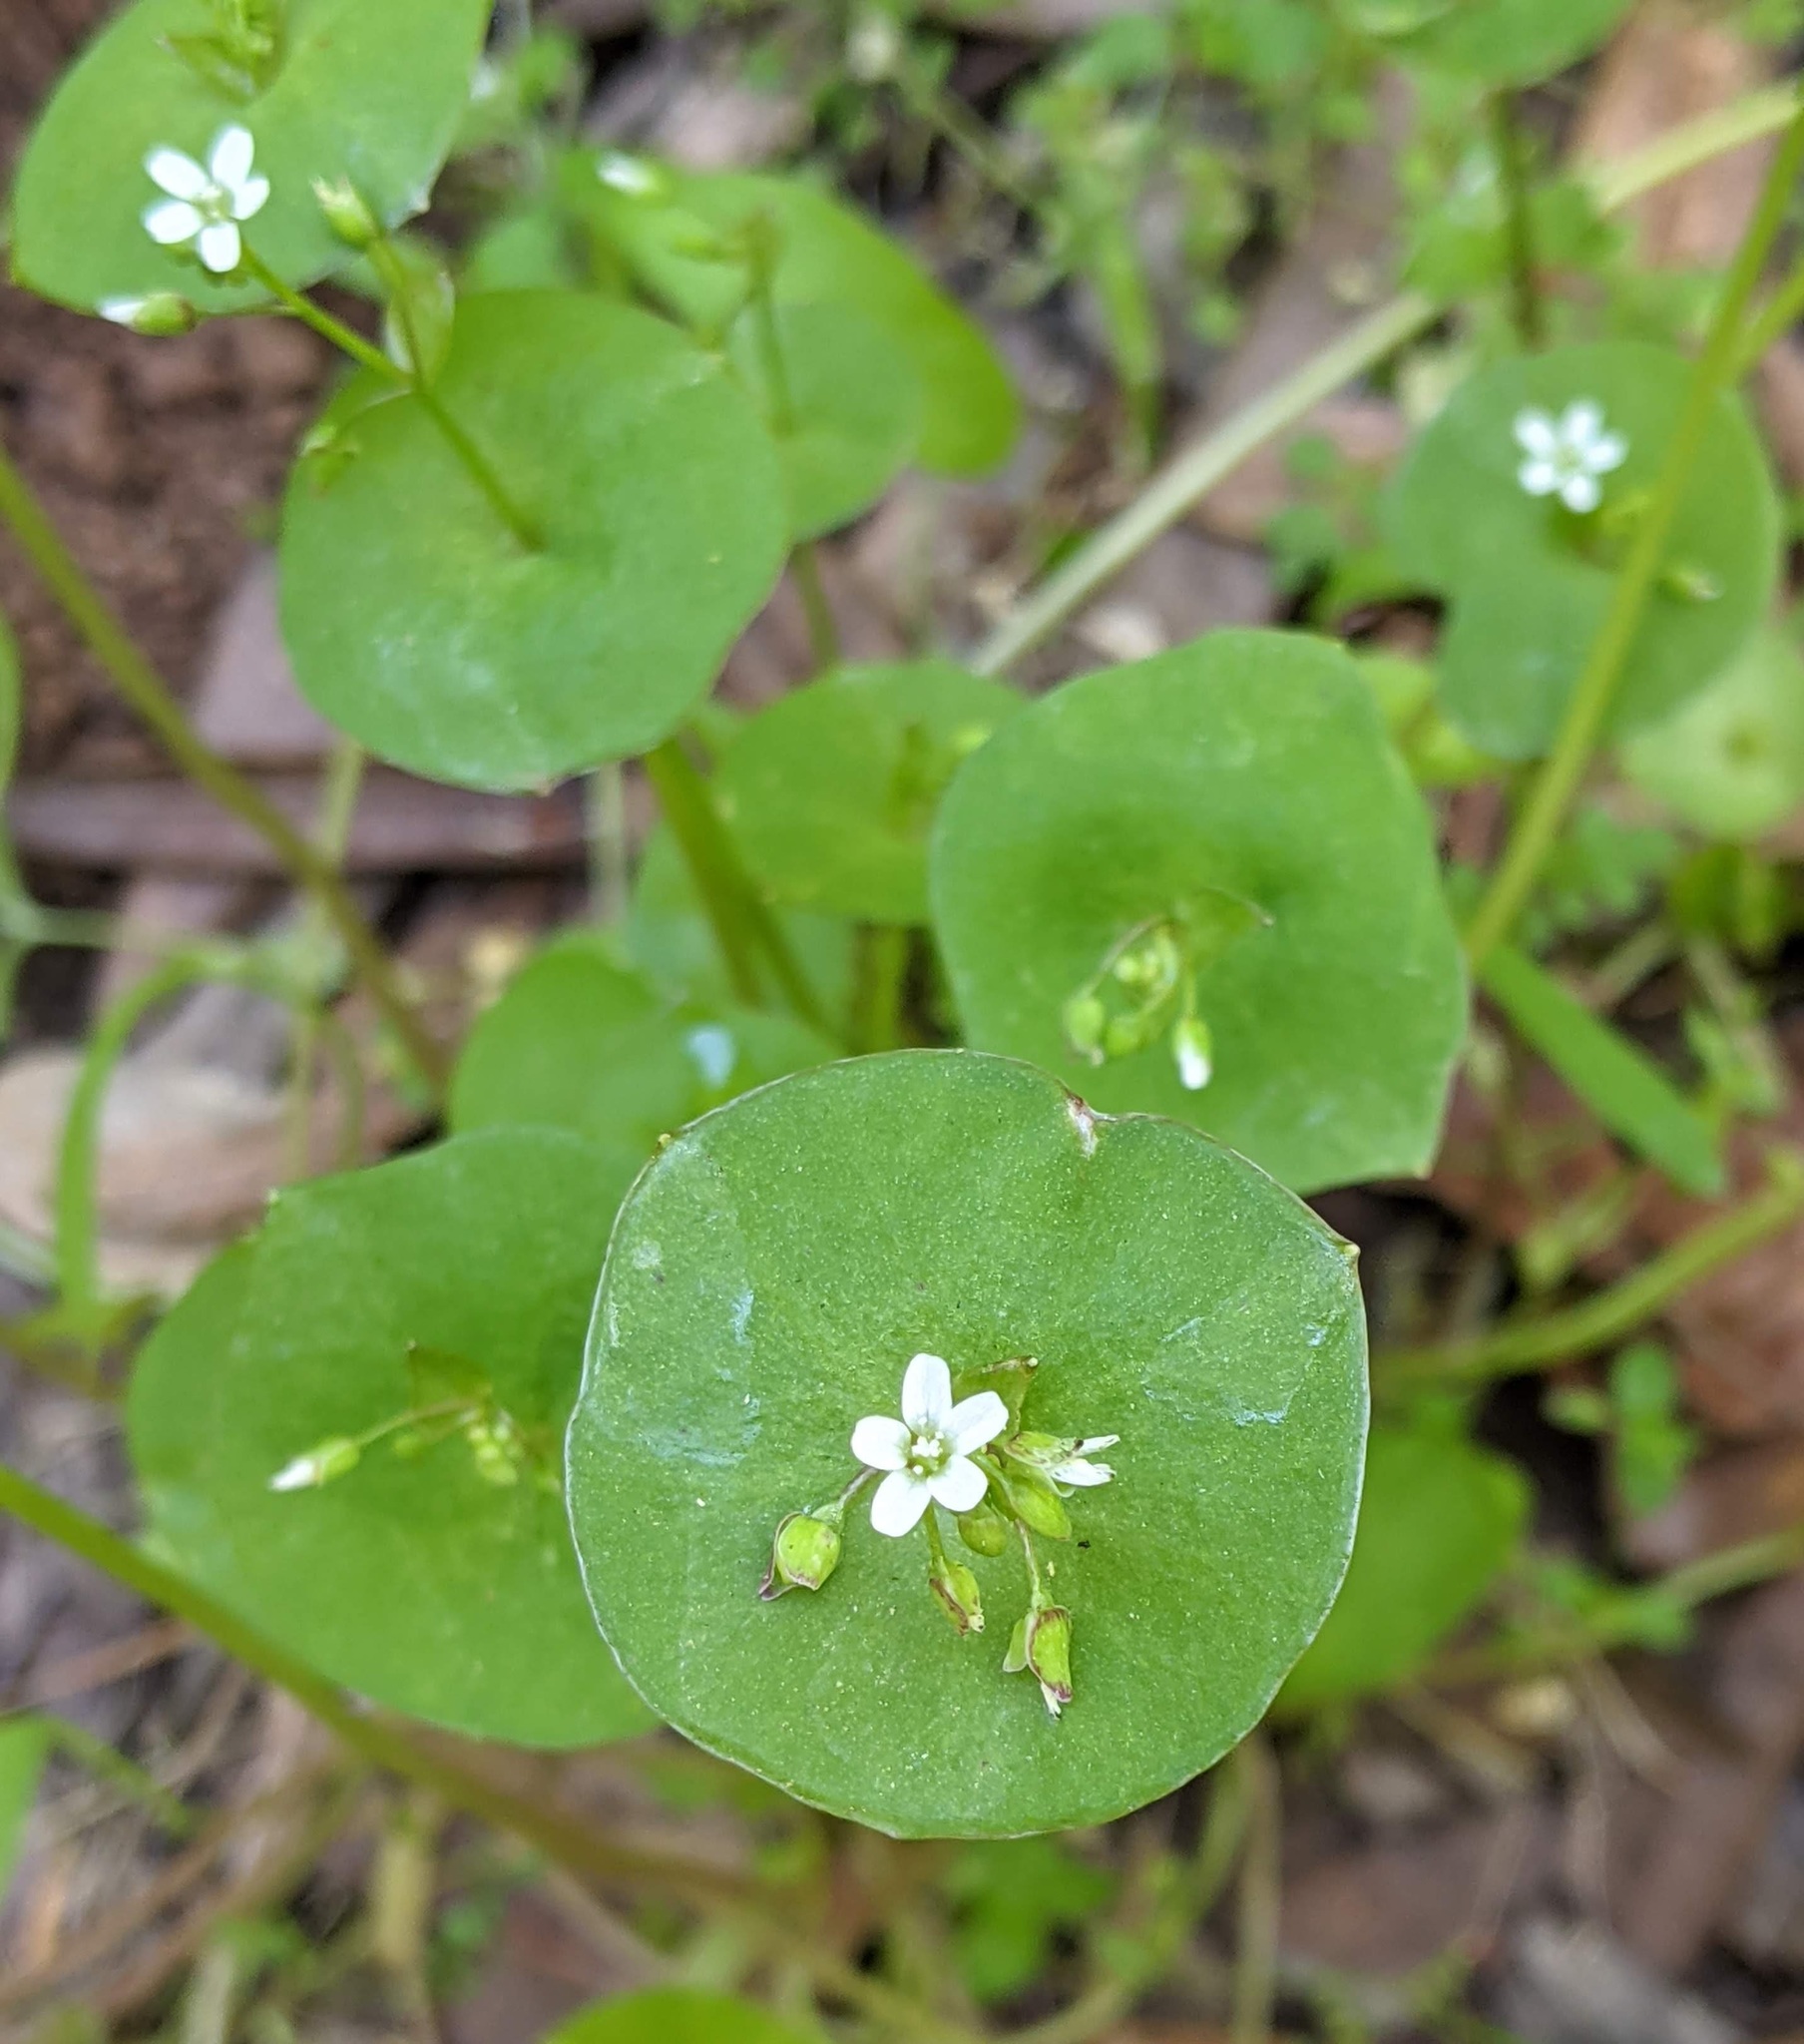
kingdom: Plantae
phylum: Tracheophyta
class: Magnoliopsida
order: Caryophyllales
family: Montiaceae
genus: Claytonia
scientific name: Claytonia perfoliata
